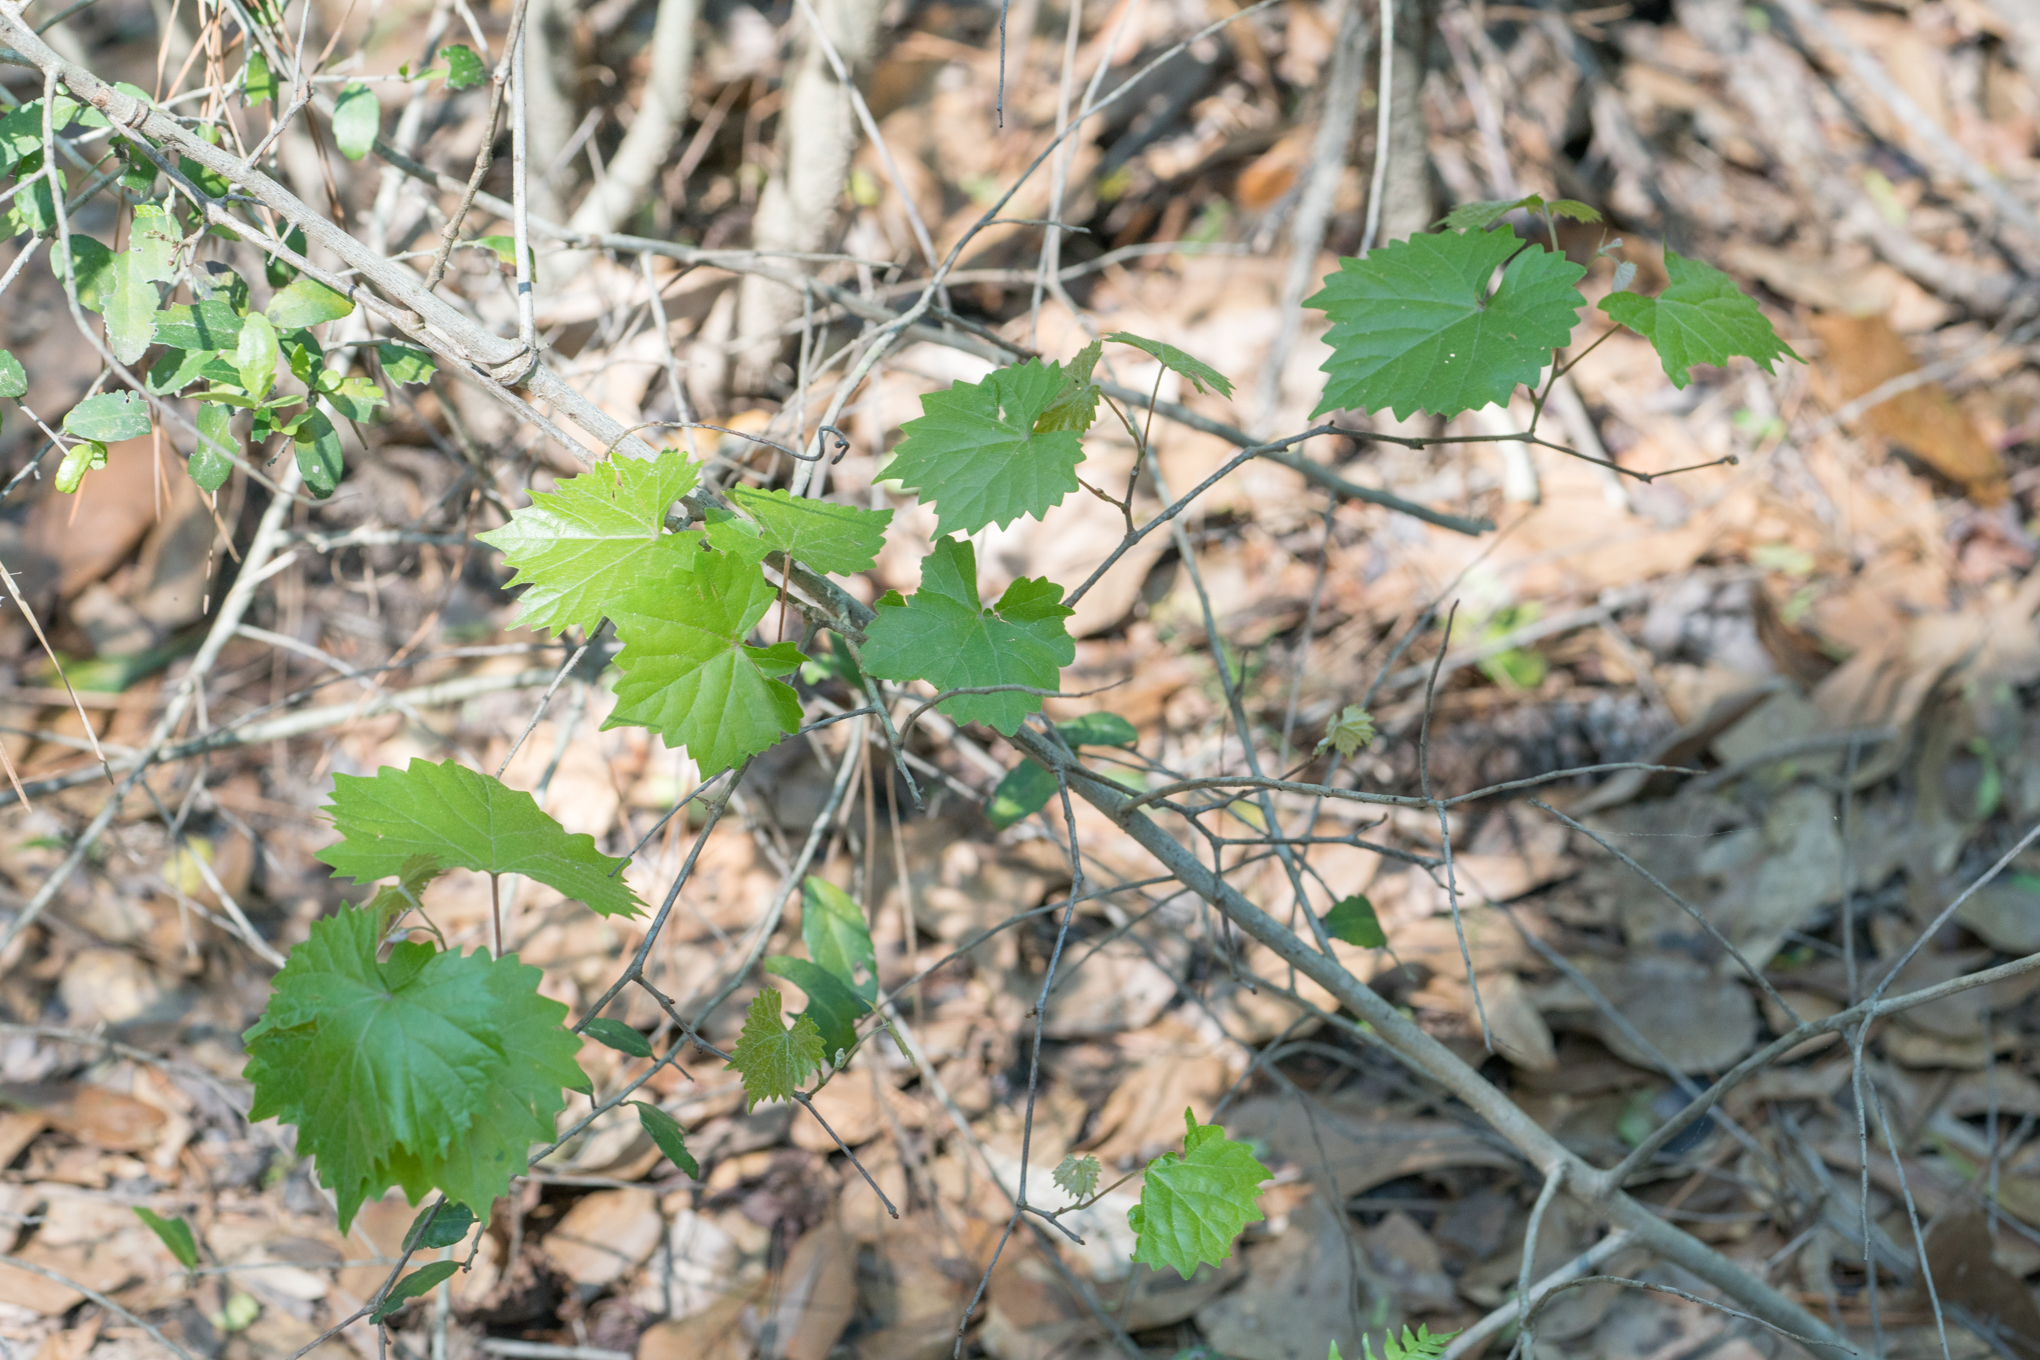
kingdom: Plantae
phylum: Tracheophyta
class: Magnoliopsida
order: Vitales
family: Vitaceae
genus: Vitis
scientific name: Vitis rotundifolia
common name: Muscadine grape
